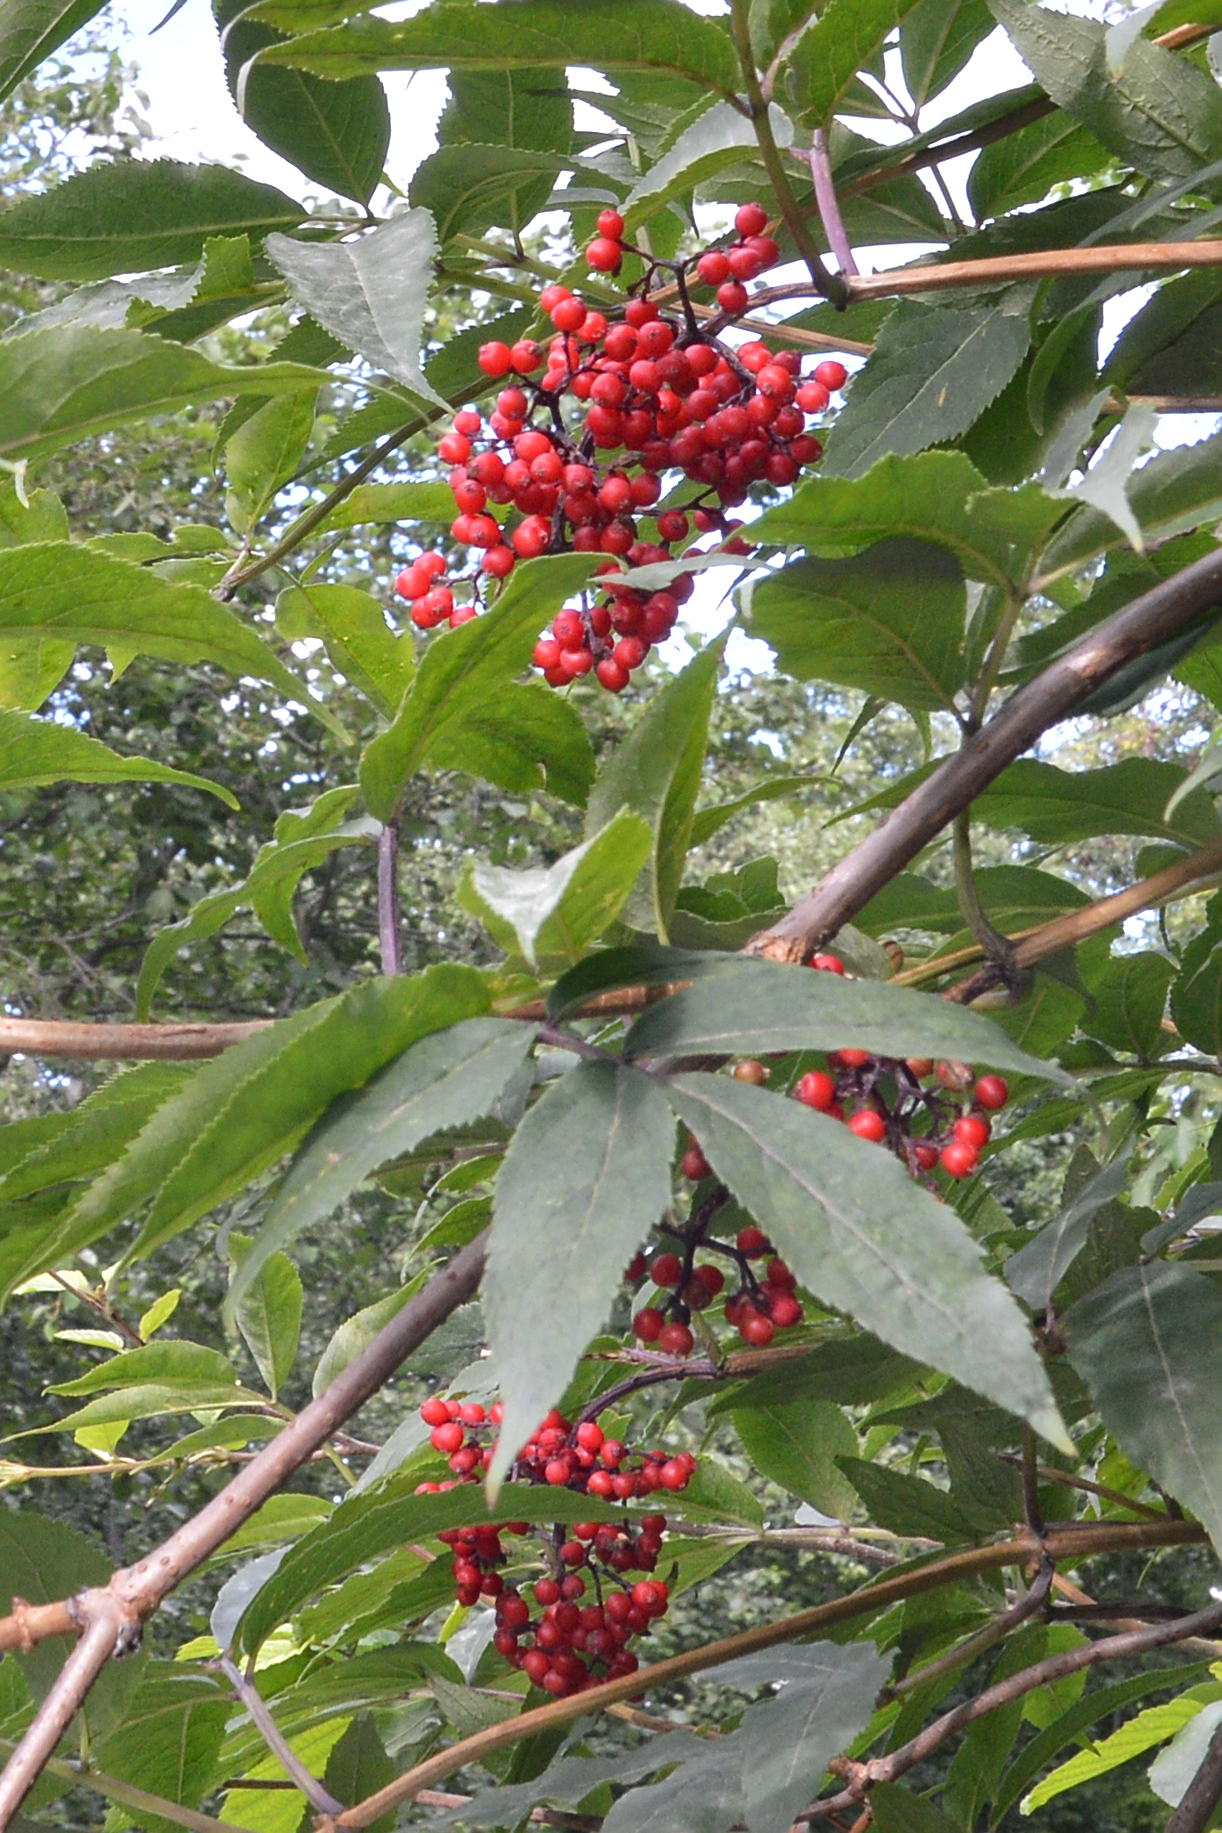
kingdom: Plantae
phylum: Tracheophyta
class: Magnoliopsida
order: Dipsacales
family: Viburnaceae
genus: Sambucus
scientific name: Sambucus racemosa
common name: Red-berried elder
